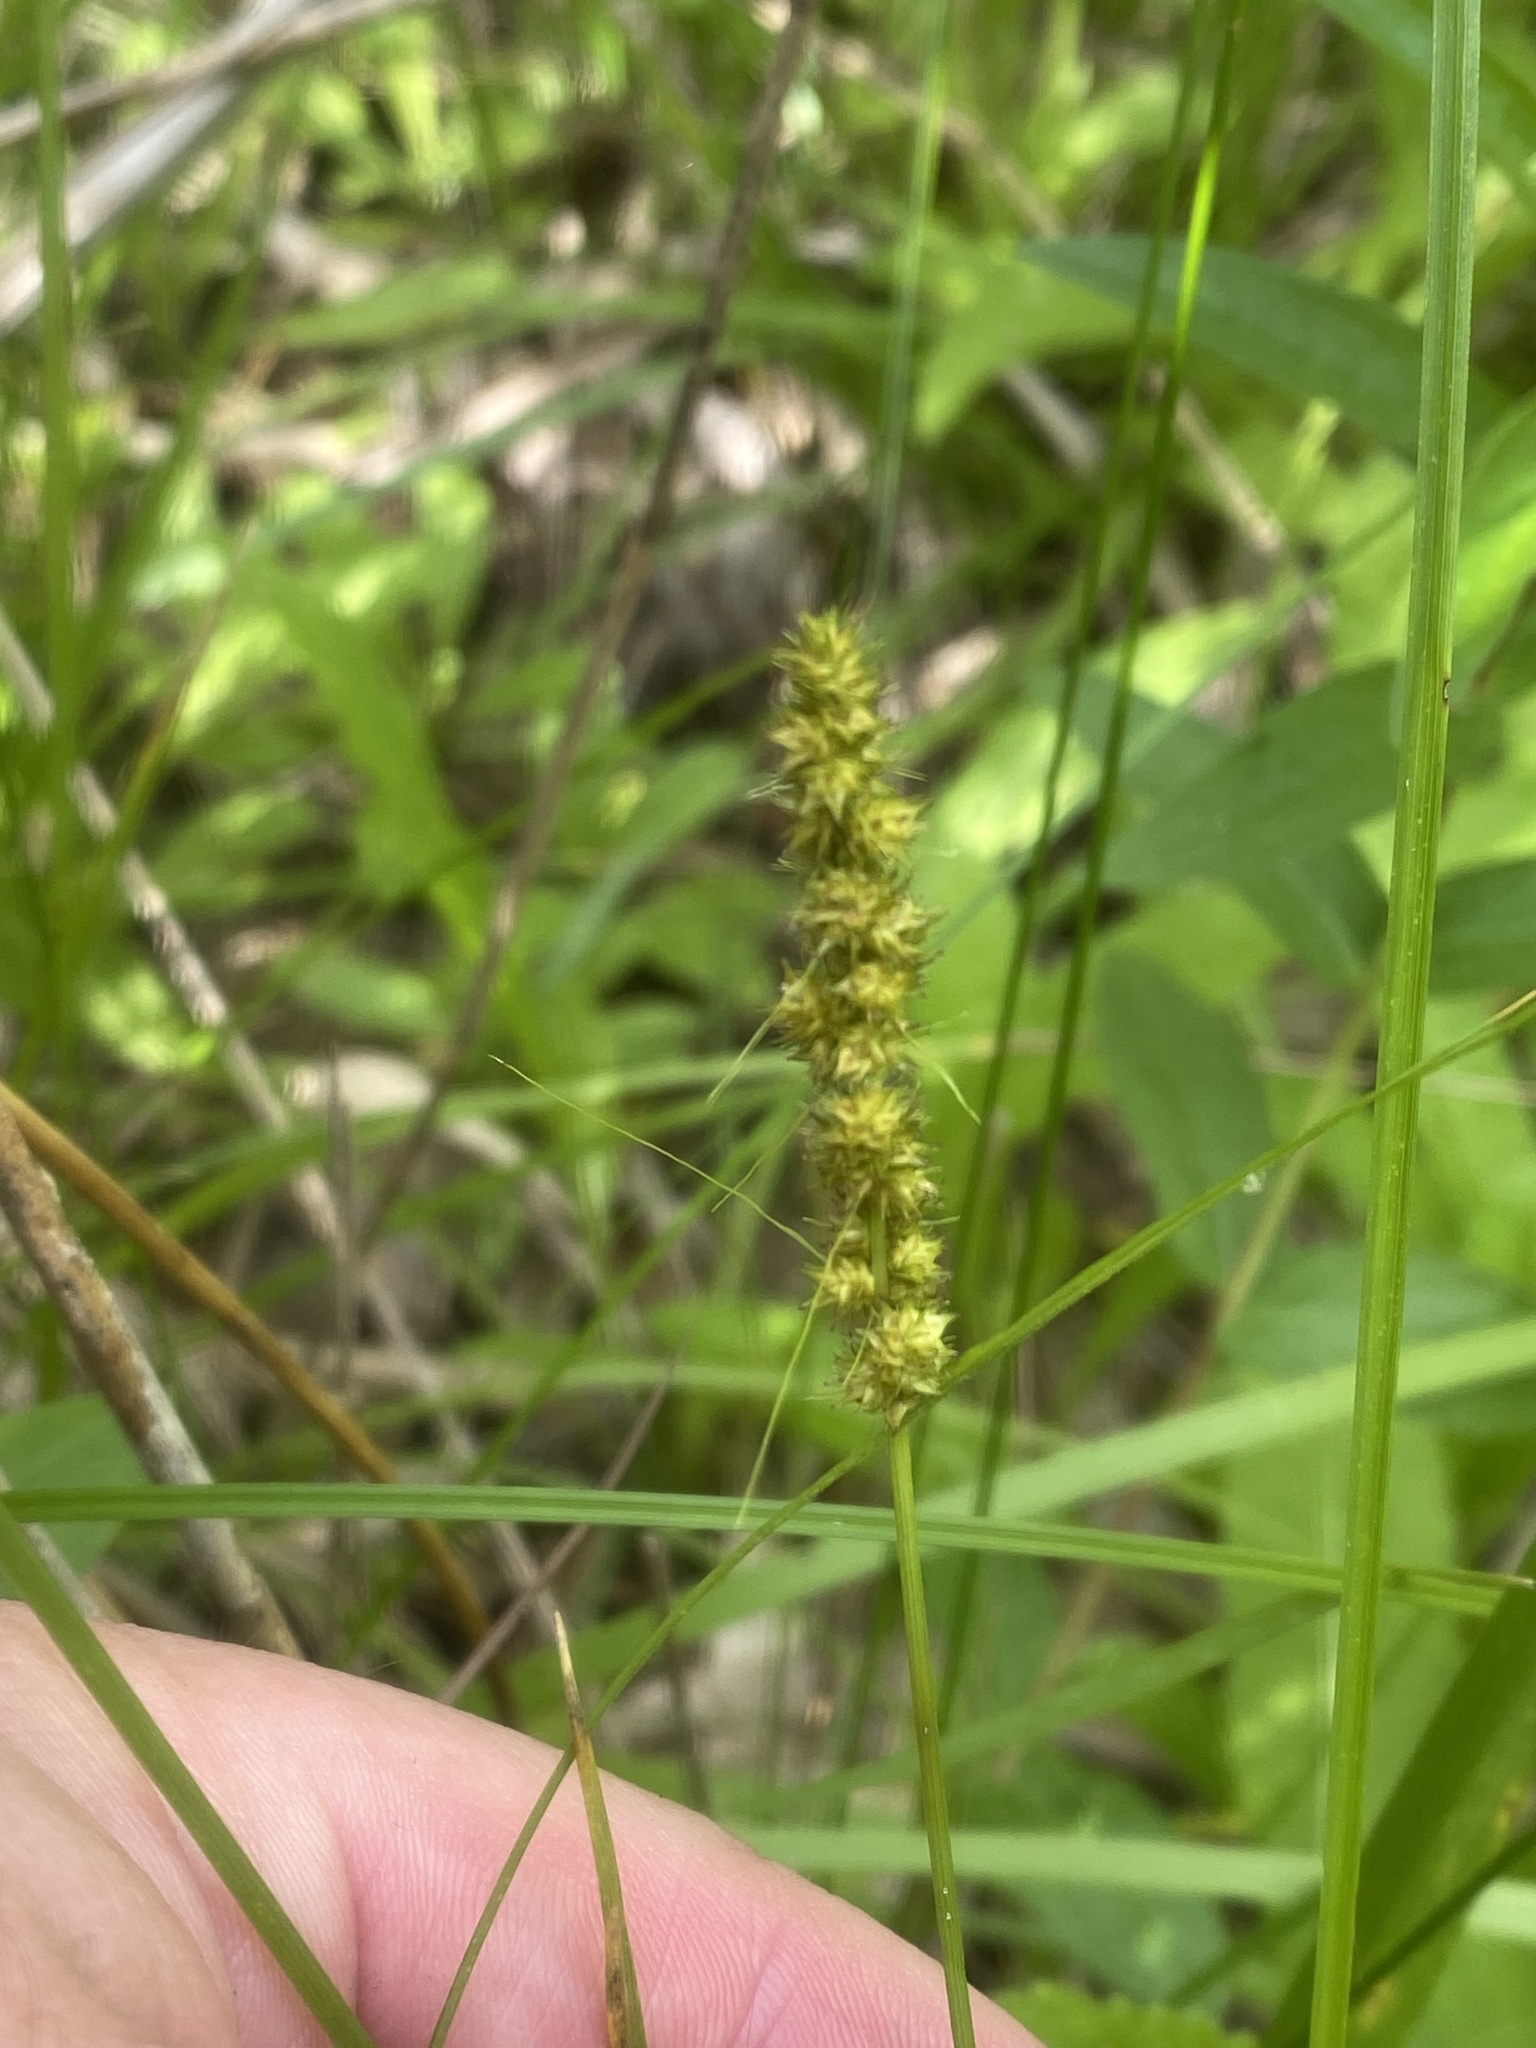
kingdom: Plantae
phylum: Tracheophyta
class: Liliopsida
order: Poales
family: Cyperaceae
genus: Carex
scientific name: Carex vulpinoidea
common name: American fox-sedge
